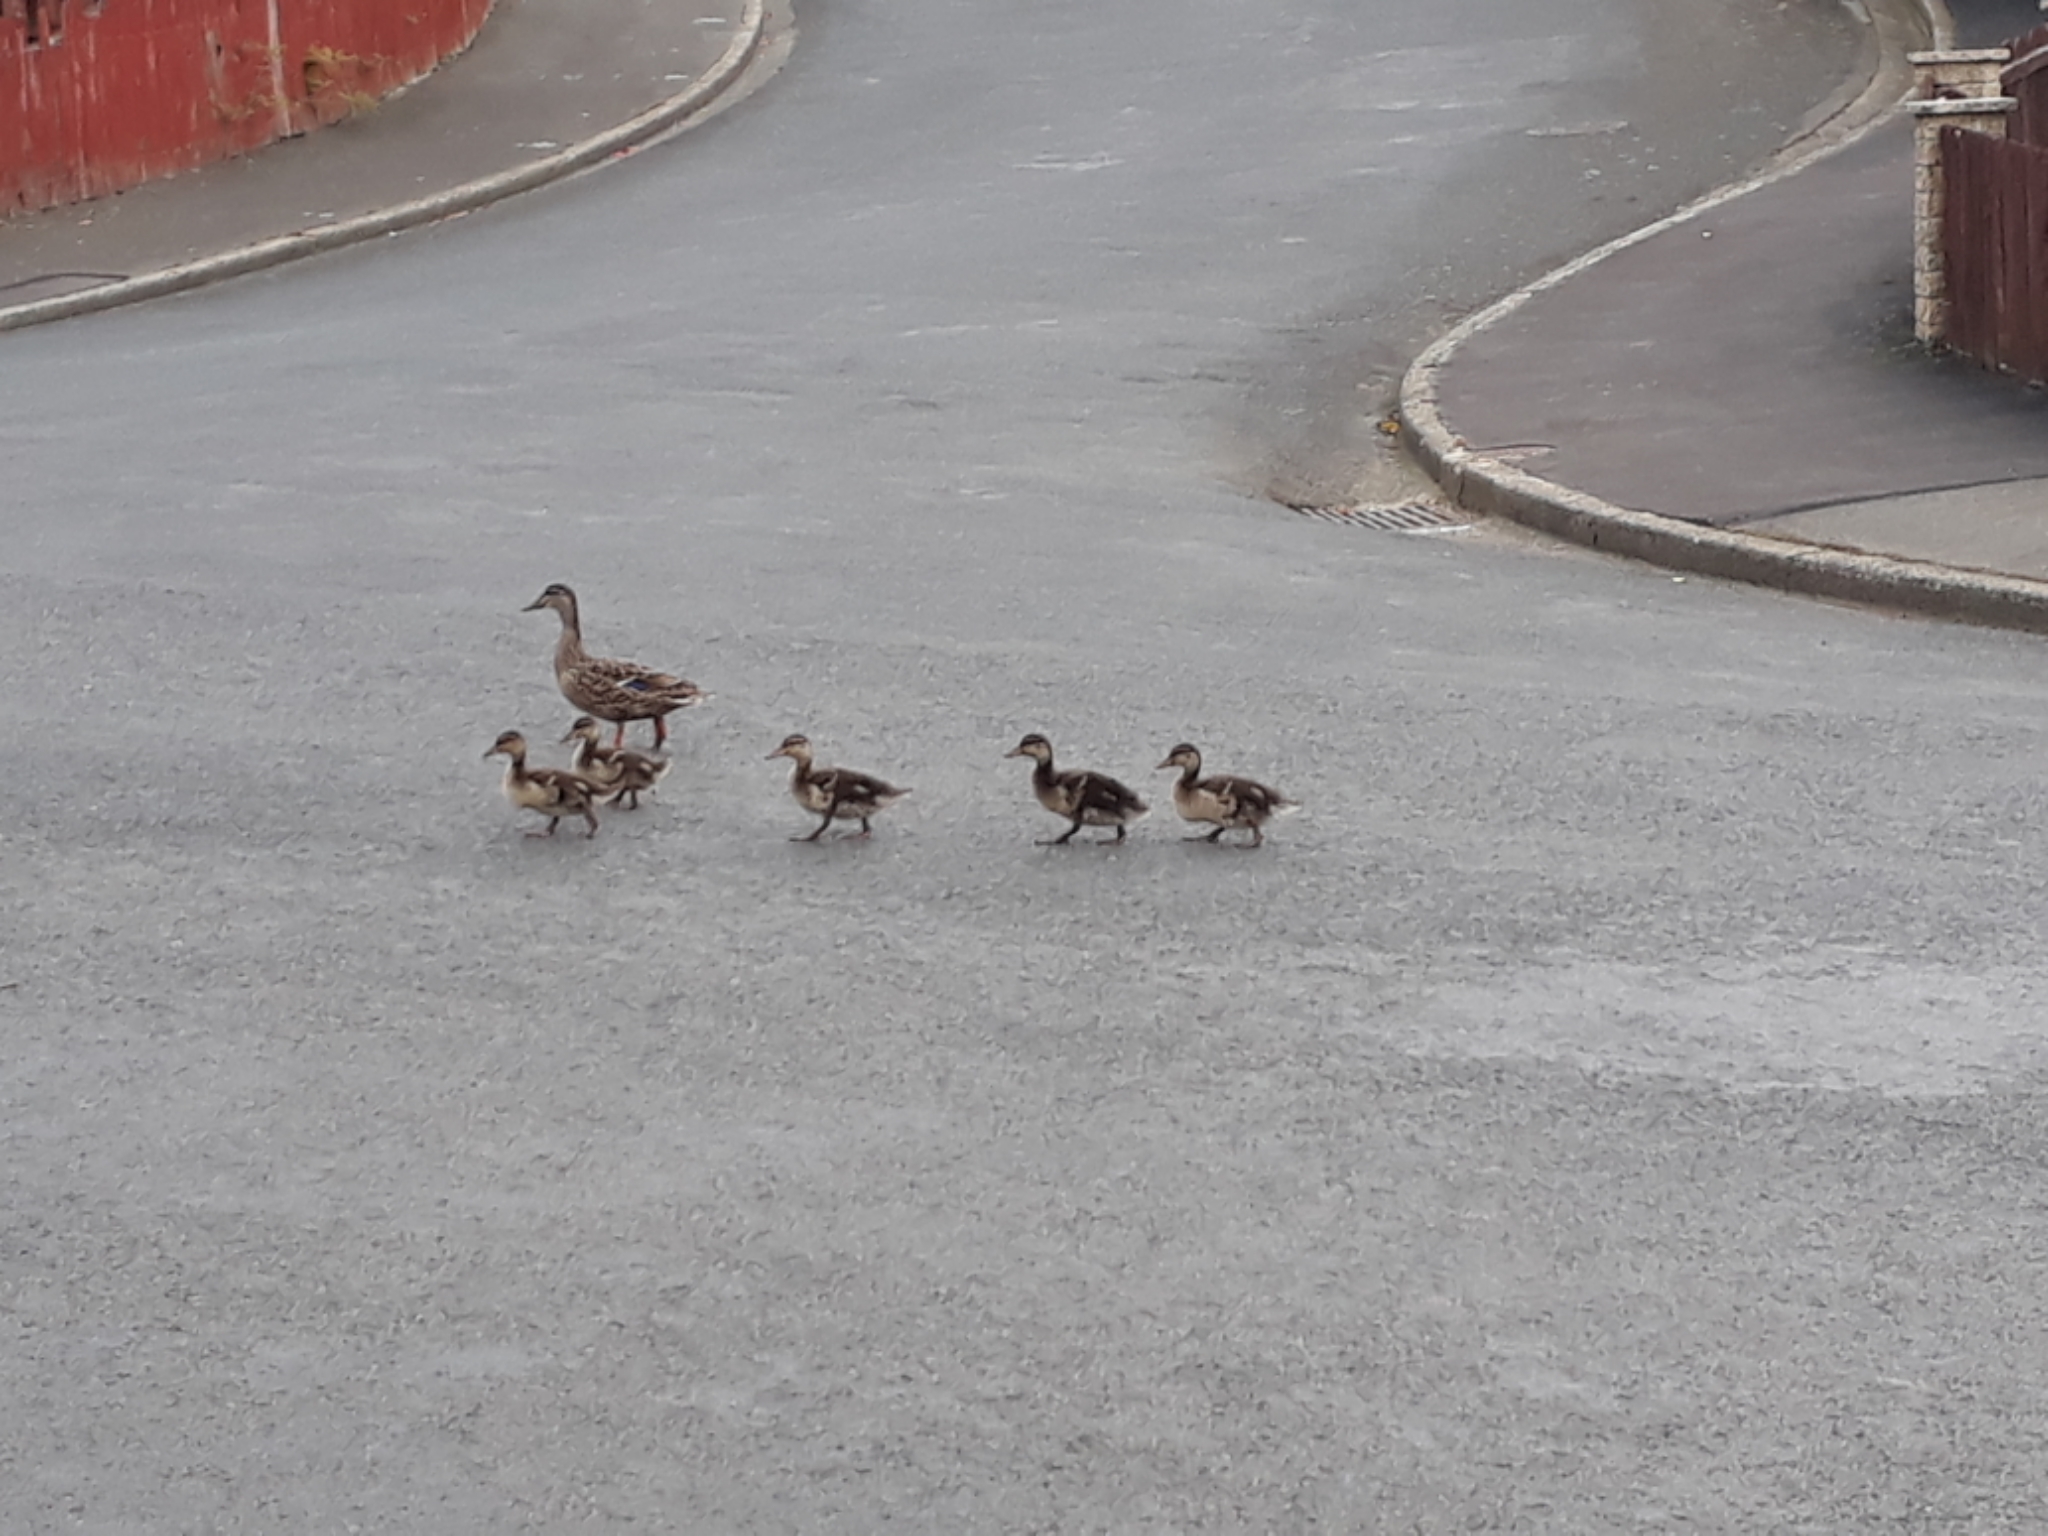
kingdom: Animalia
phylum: Chordata
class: Aves
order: Anseriformes
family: Anatidae
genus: Anas
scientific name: Anas platyrhynchos
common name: Mallard
